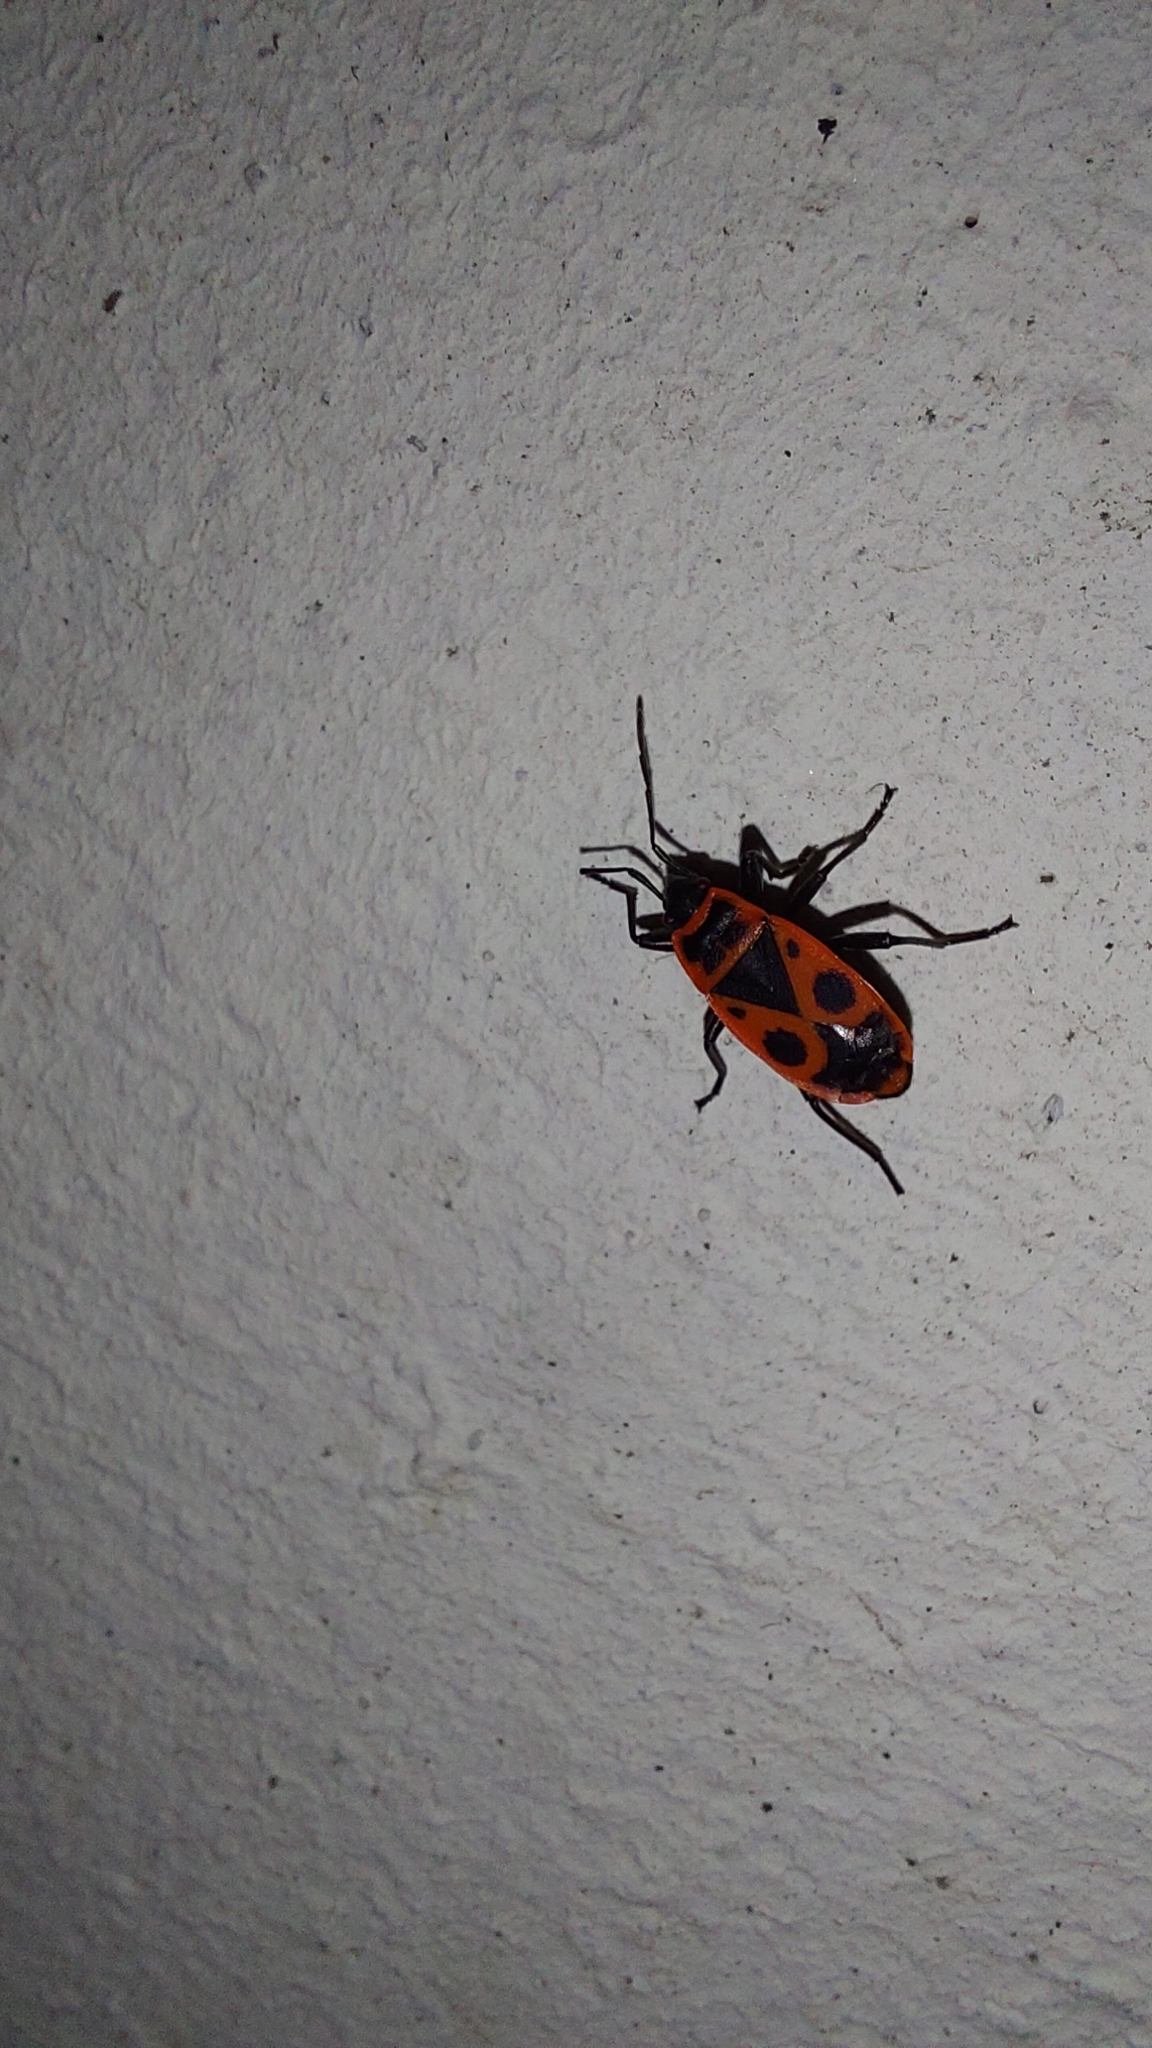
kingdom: Animalia
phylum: Arthropoda
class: Insecta
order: Hemiptera
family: Pyrrhocoridae
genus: Pyrrhocoris
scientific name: Pyrrhocoris apterus
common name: Firebug
